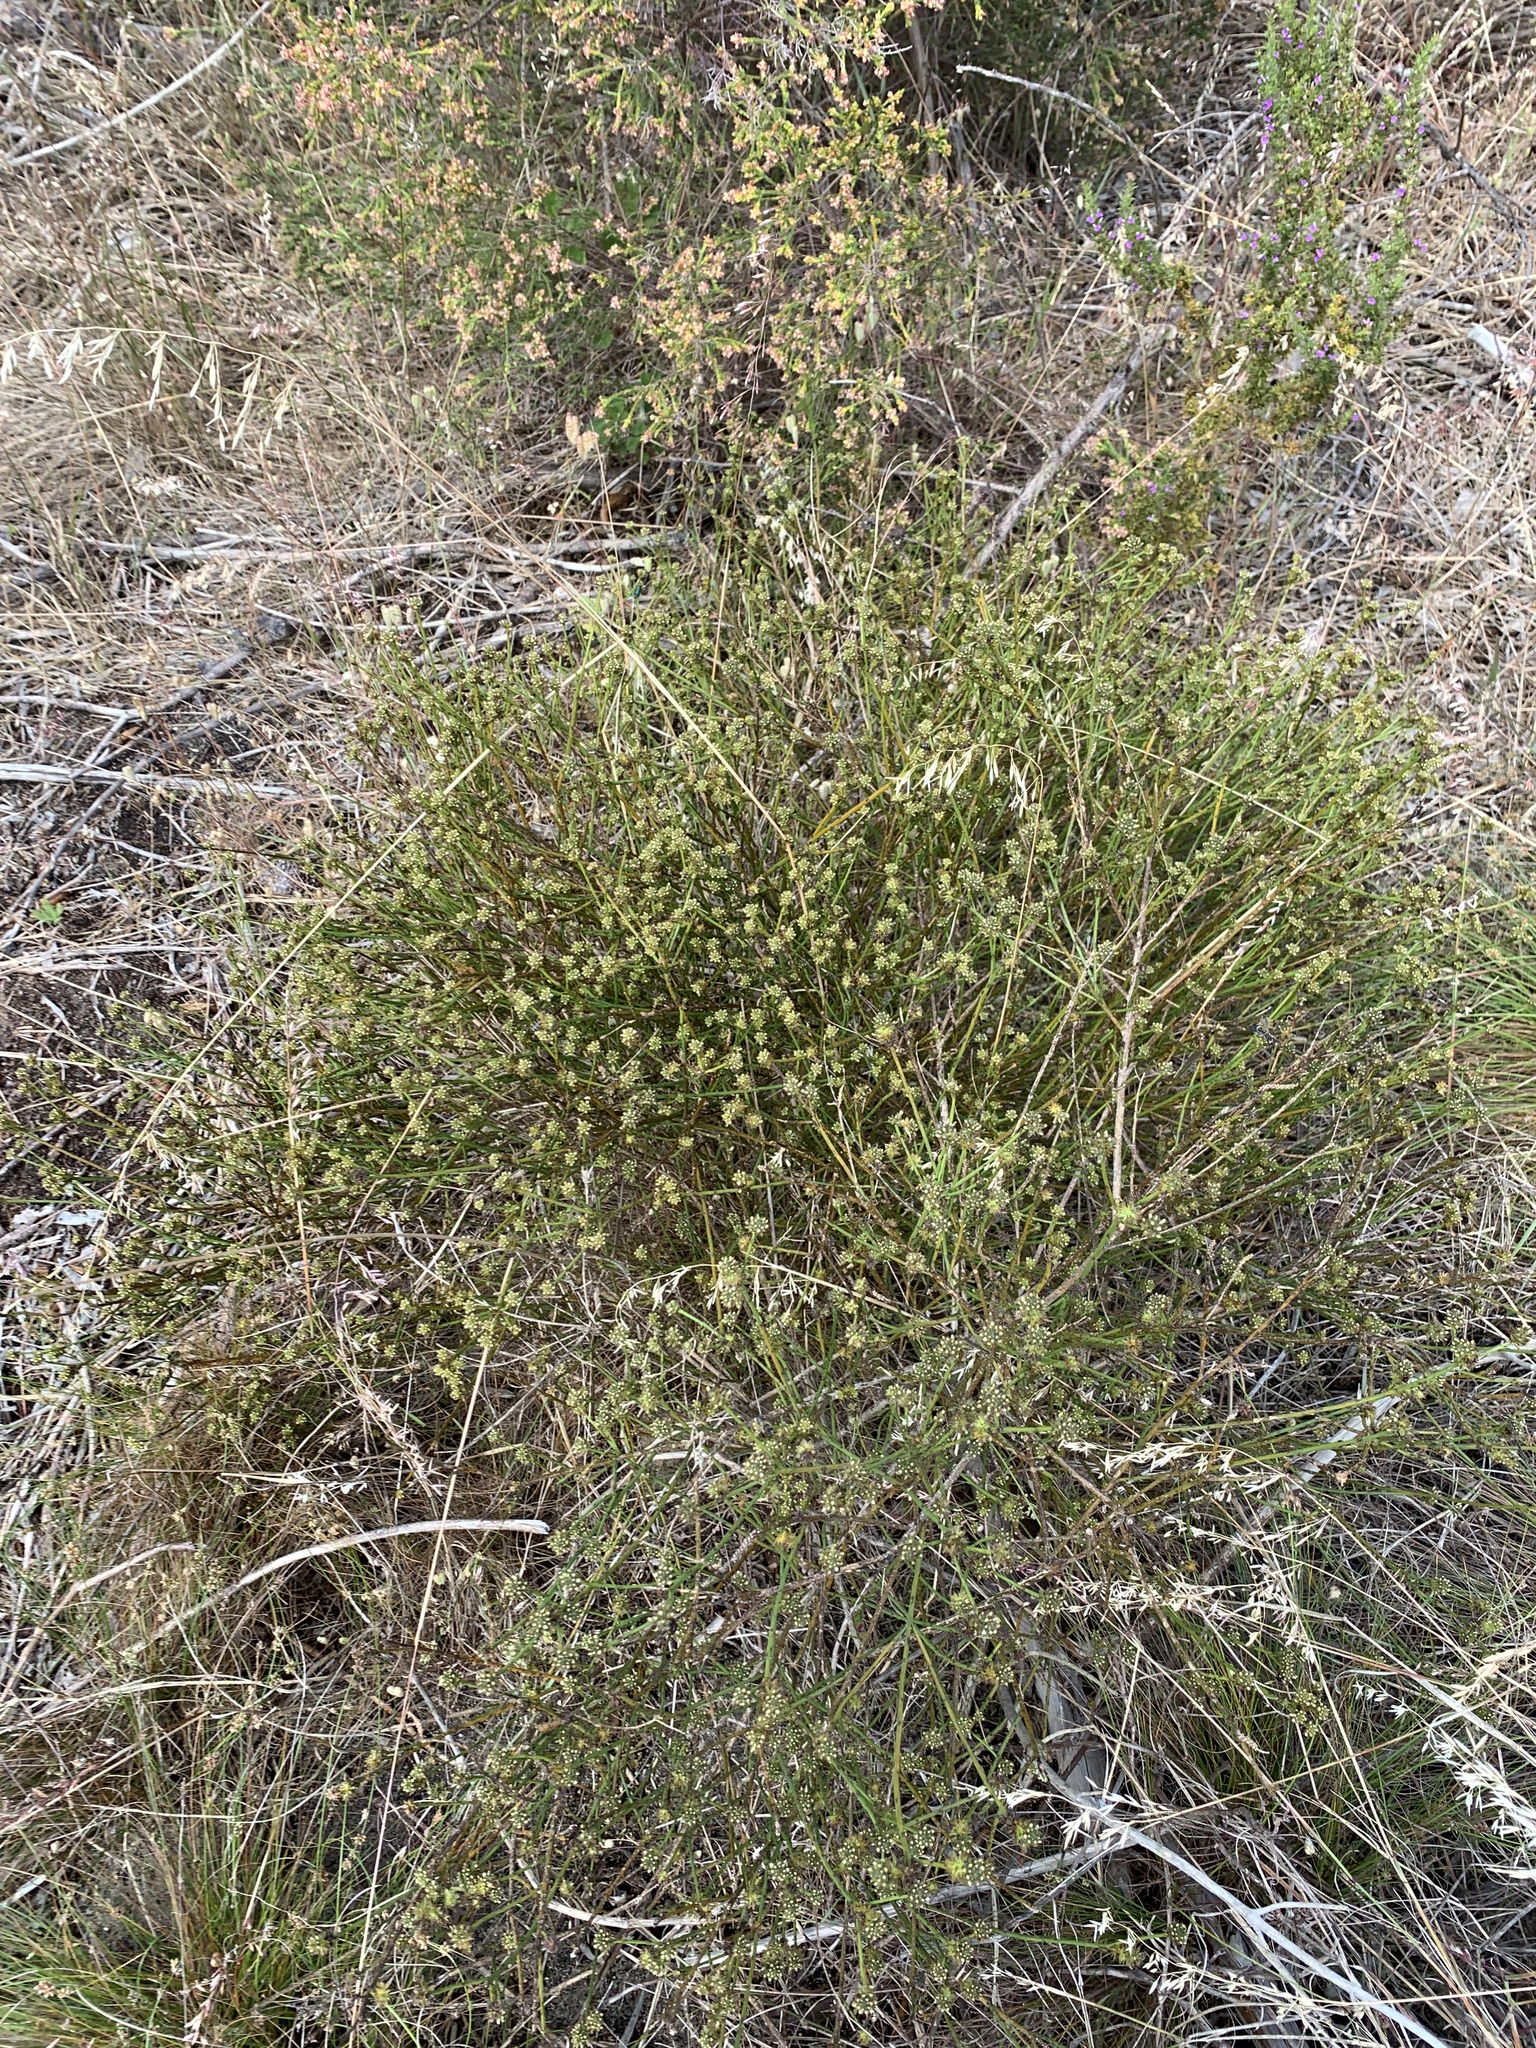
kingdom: Plantae
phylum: Tracheophyta
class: Magnoliopsida
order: Santalales
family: Thesiaceae
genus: Thesium
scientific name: Thesium aggregatum
